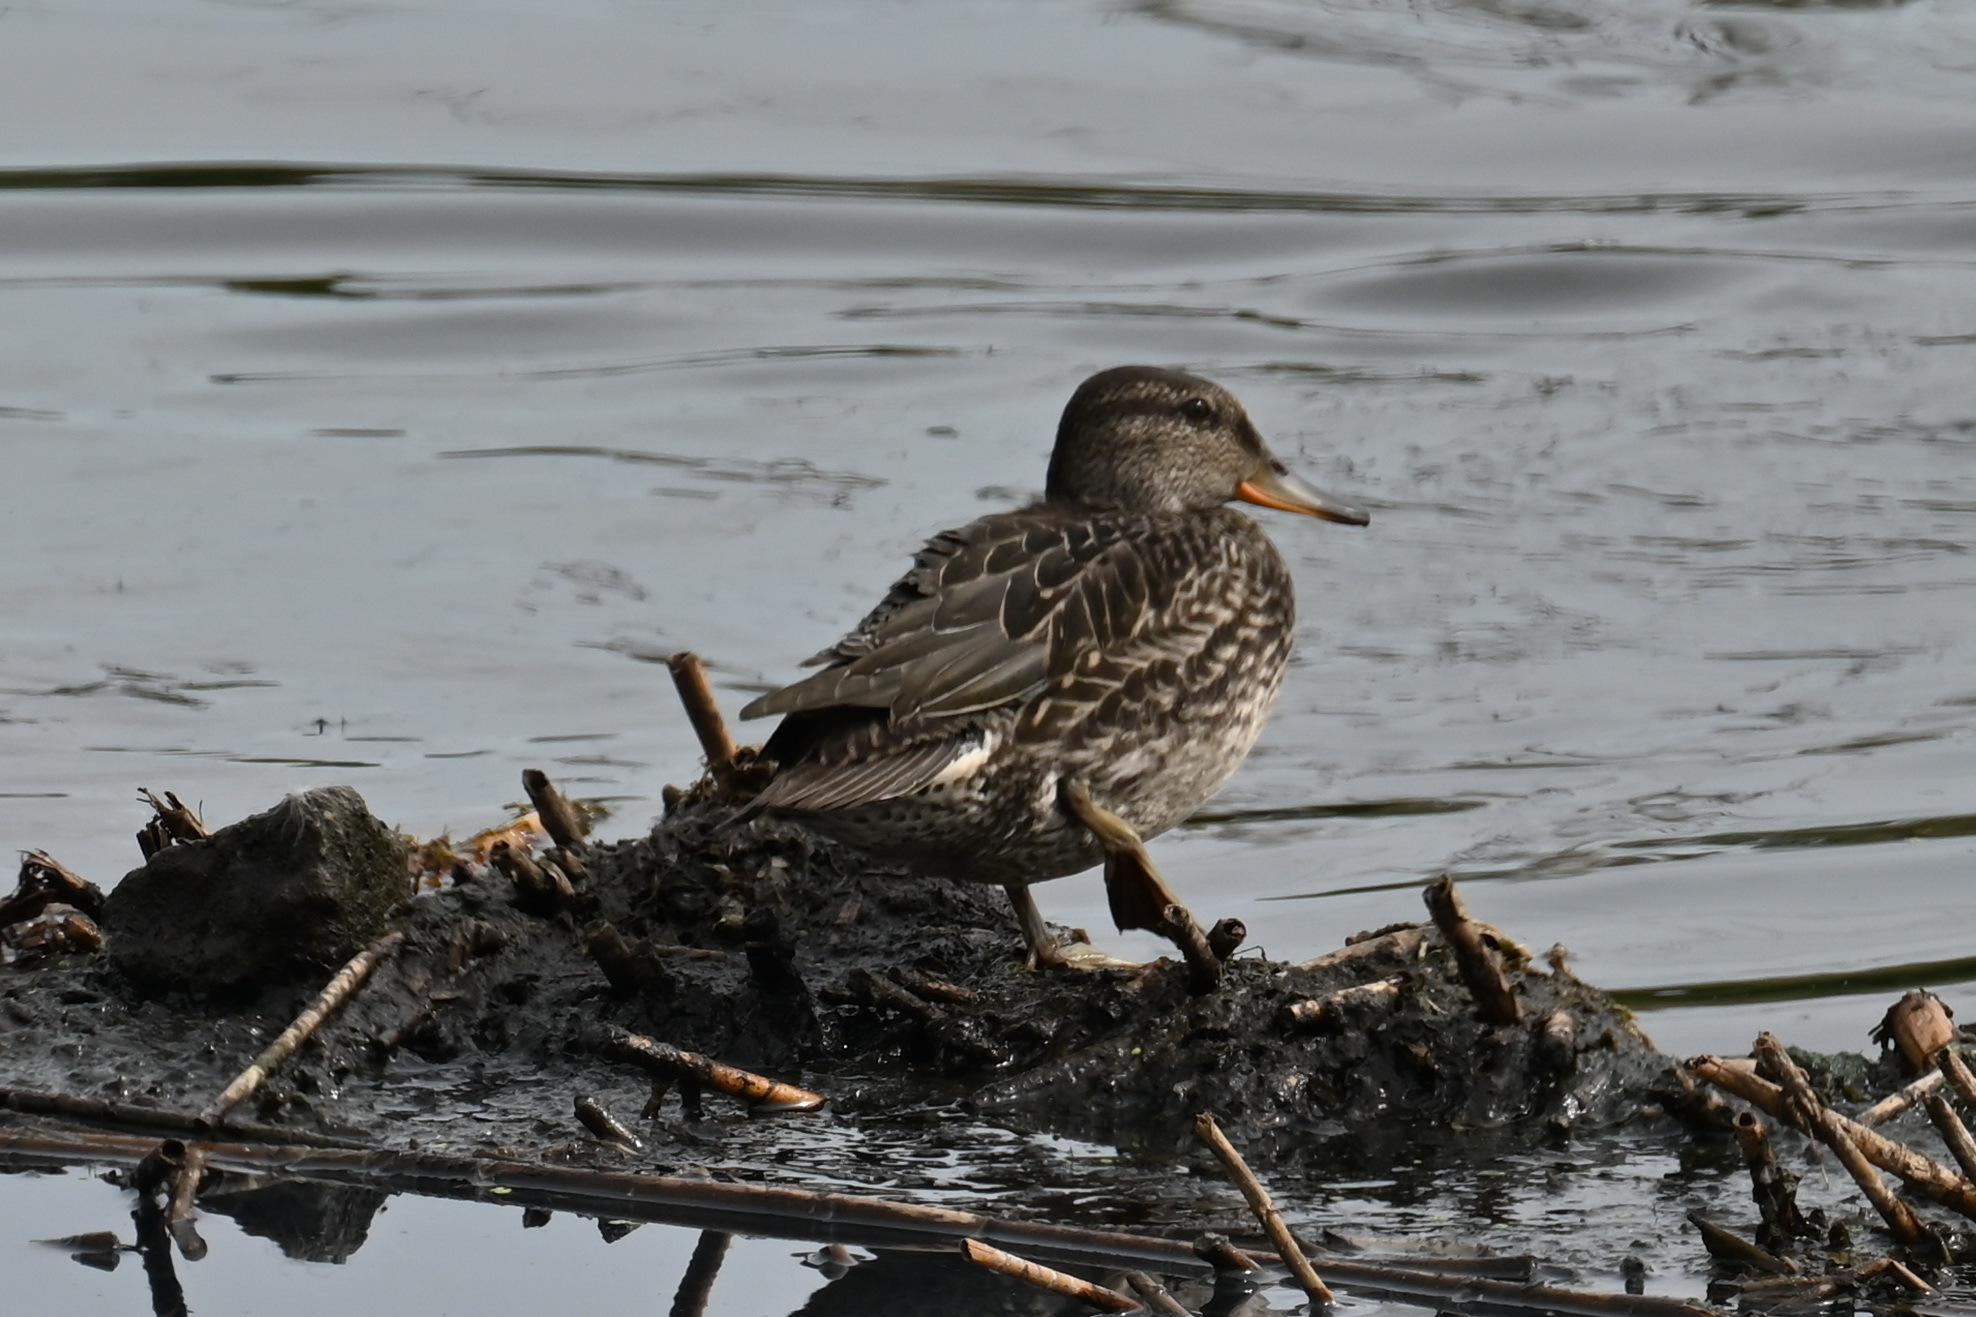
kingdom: Animalia
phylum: Chordata
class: Aves
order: Anseriformes
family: Anatidae
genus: Anas
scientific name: Anas crecca
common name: Eurasian teal
